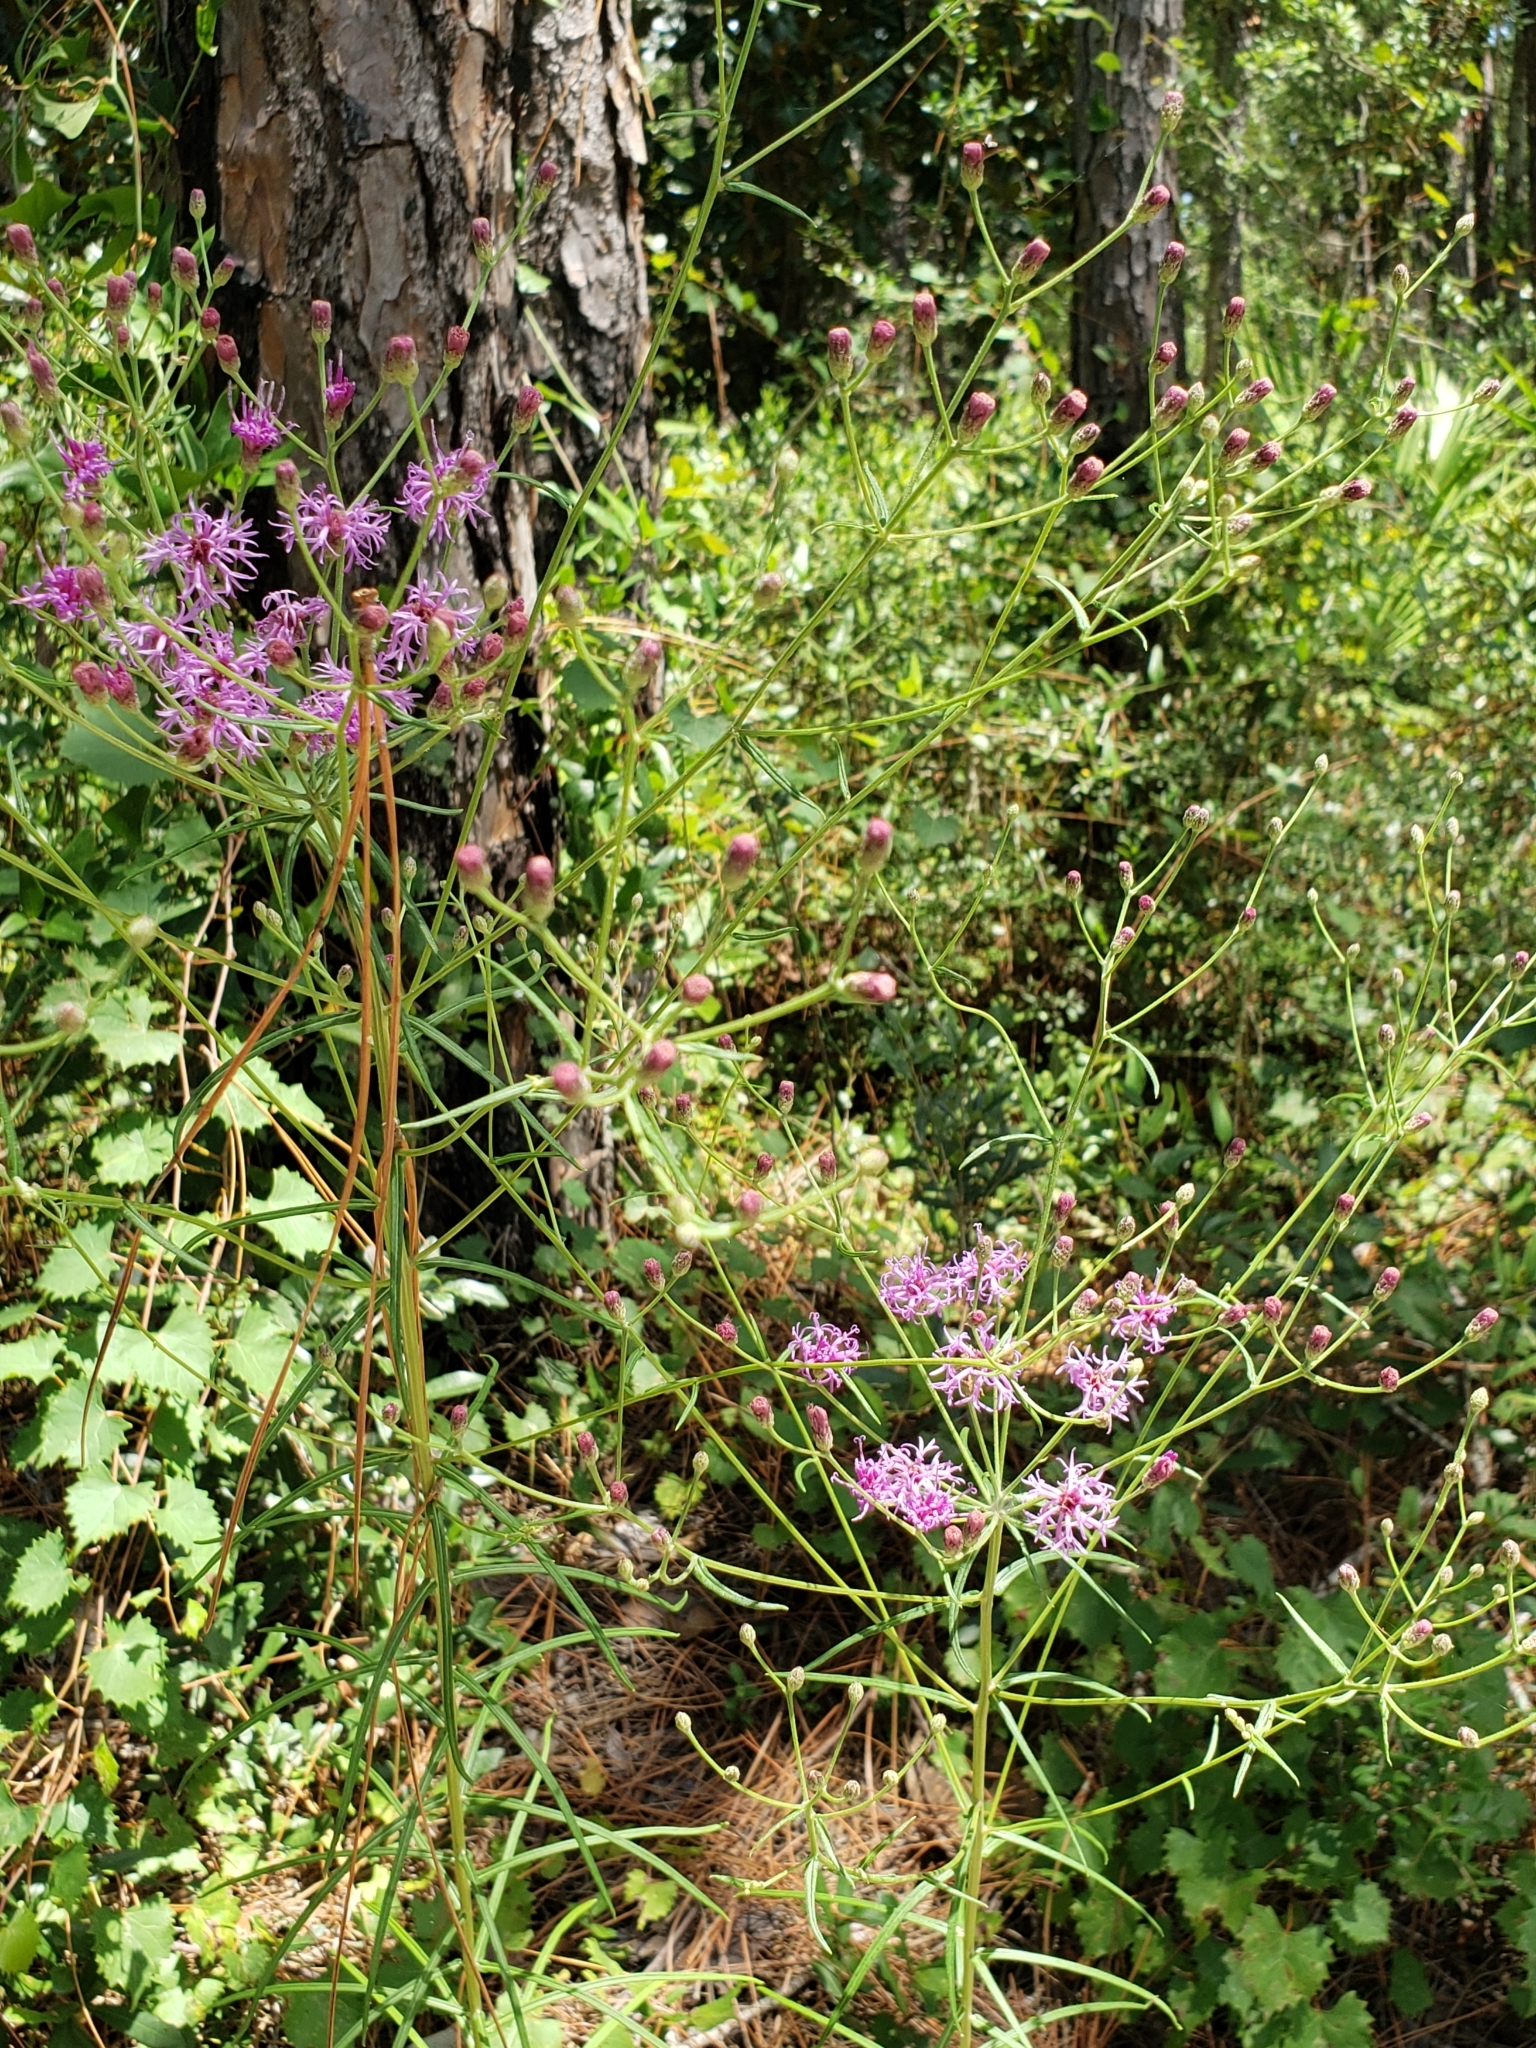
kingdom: Plantae
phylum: Tracheophyta
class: Magnoliopsida
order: Asterales
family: Asteraceae
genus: Vernonia
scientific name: Vernonia angustifolia
